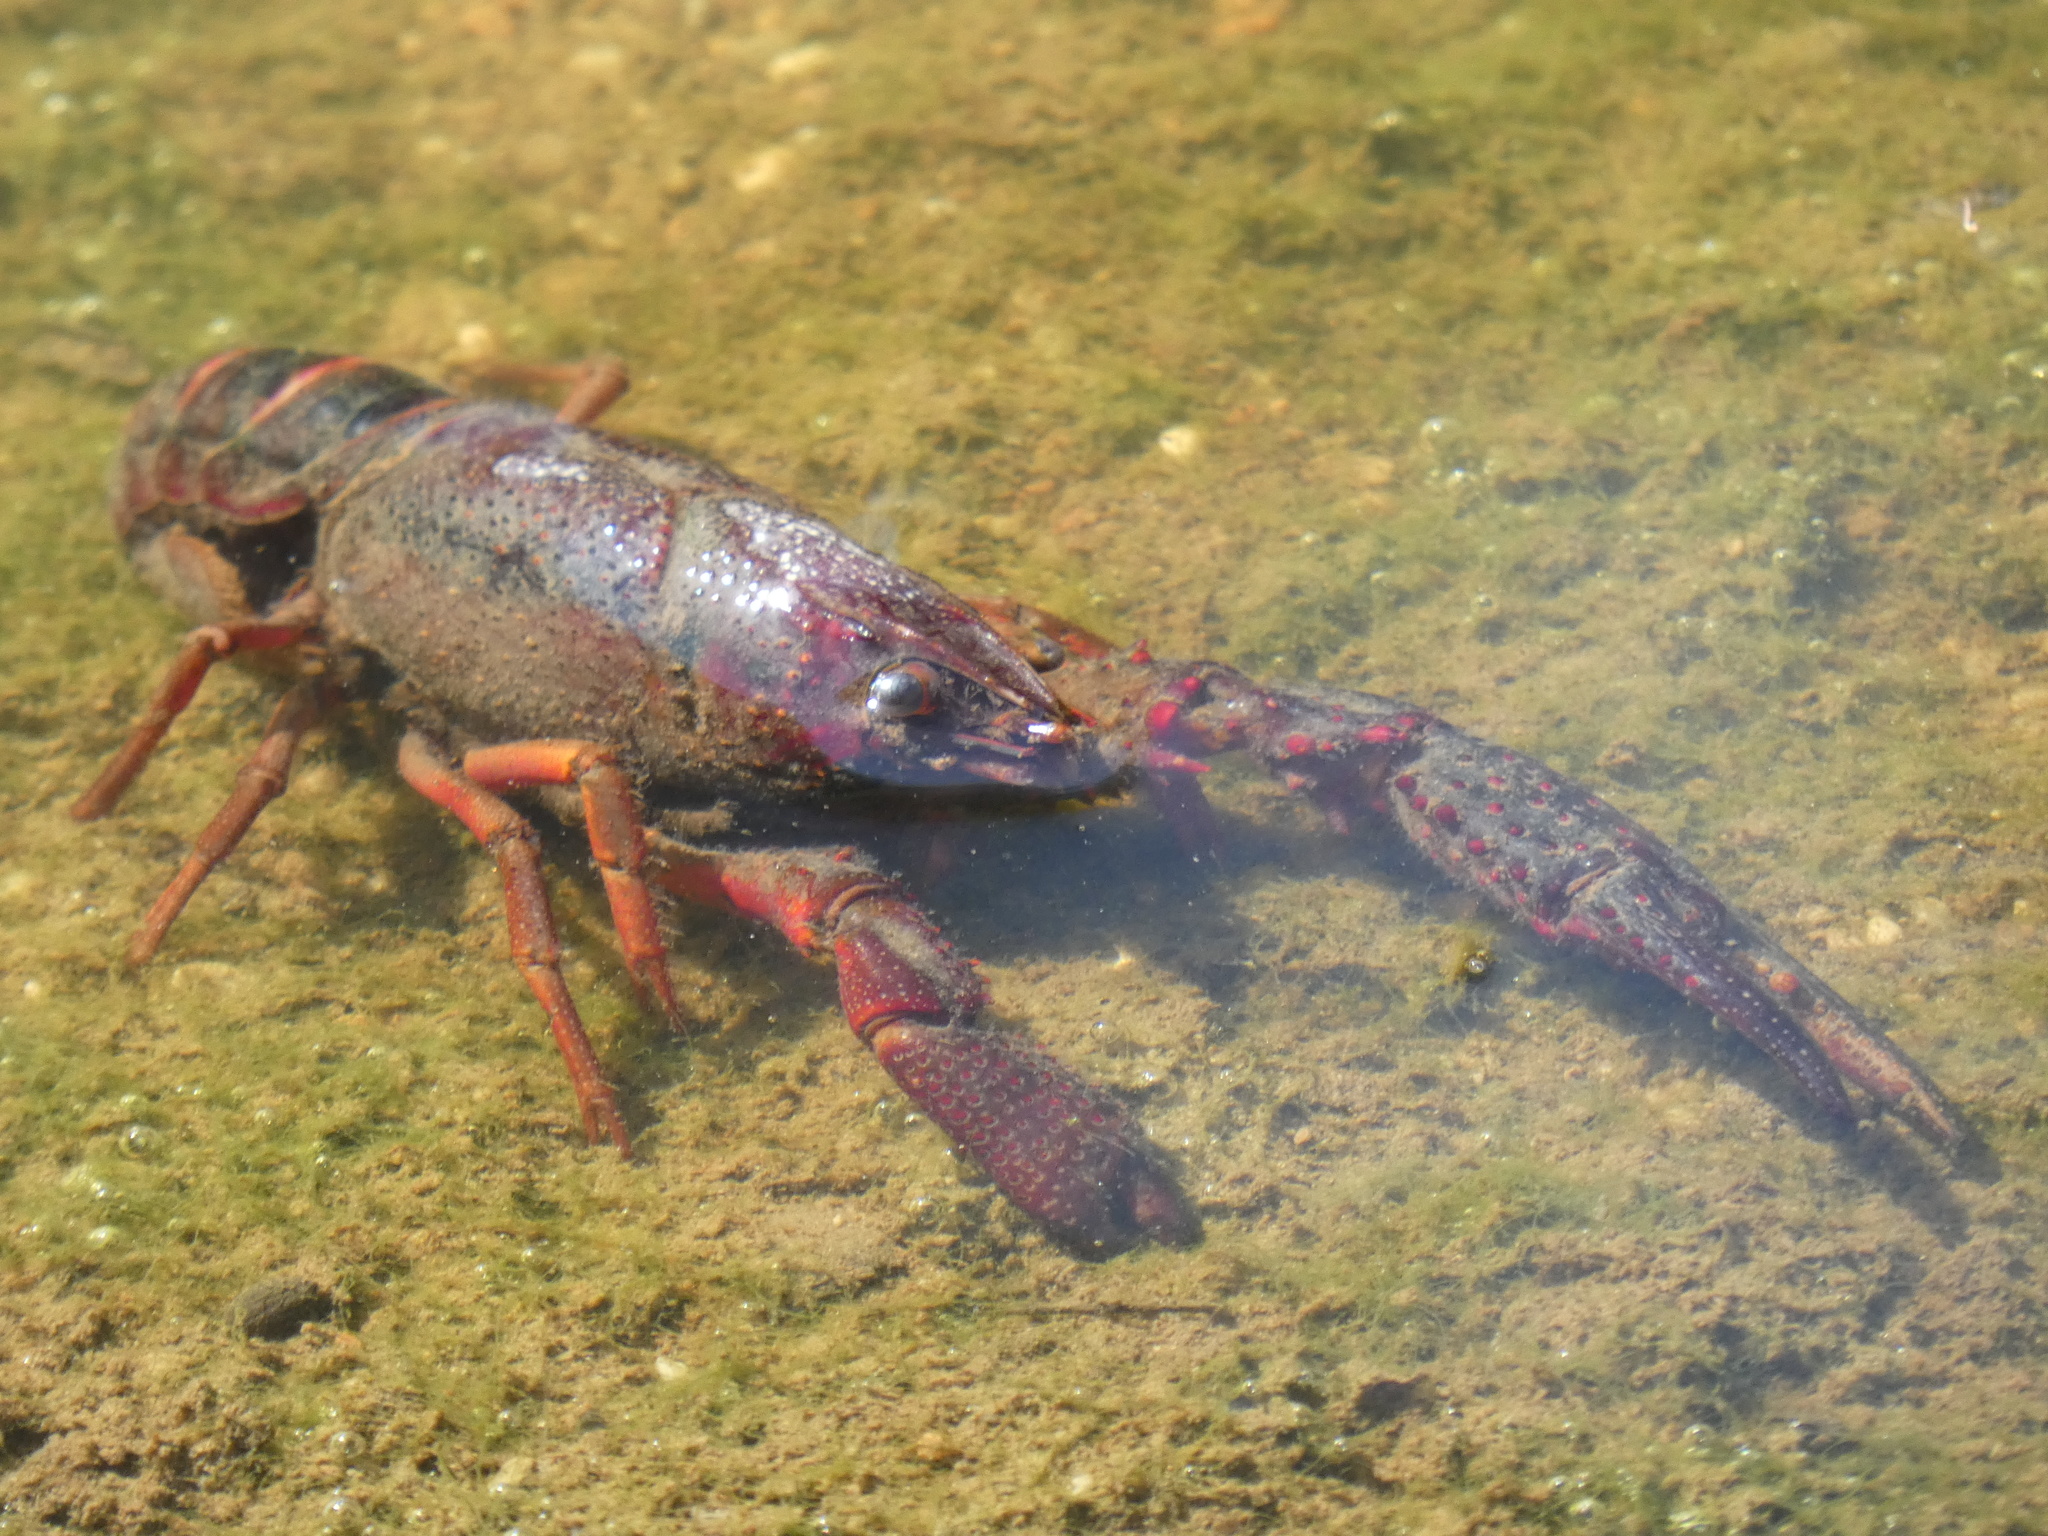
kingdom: Animalia
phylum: Arthropoda
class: Malacostraca
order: Decapoda
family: Cambaridae
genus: Procambarus
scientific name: Procambarus clarkii
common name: Red swamp crayfish
